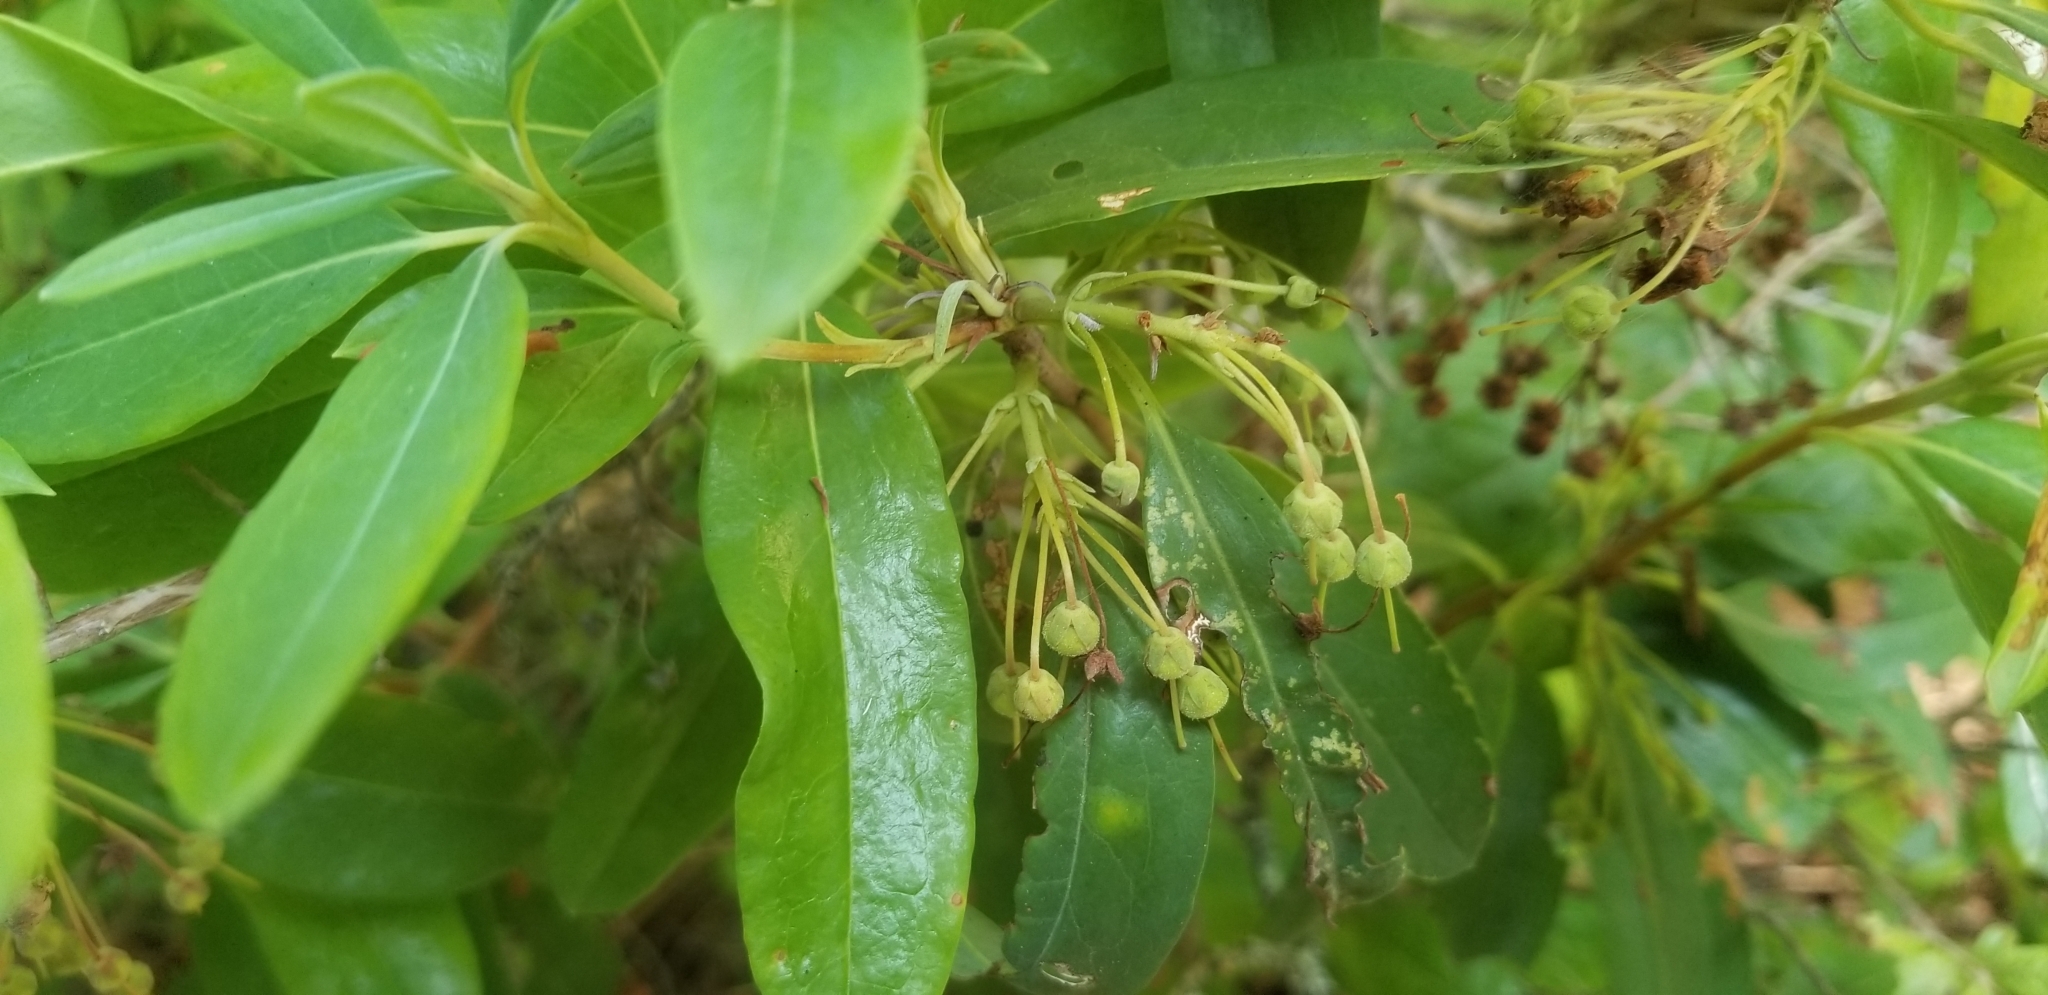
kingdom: Plantae
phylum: Tracheophyta
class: Magnoliopsida
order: Ericales
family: Ericaceae
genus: Kalmia
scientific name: Kalmia angustifolia
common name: Sheep-laurel
